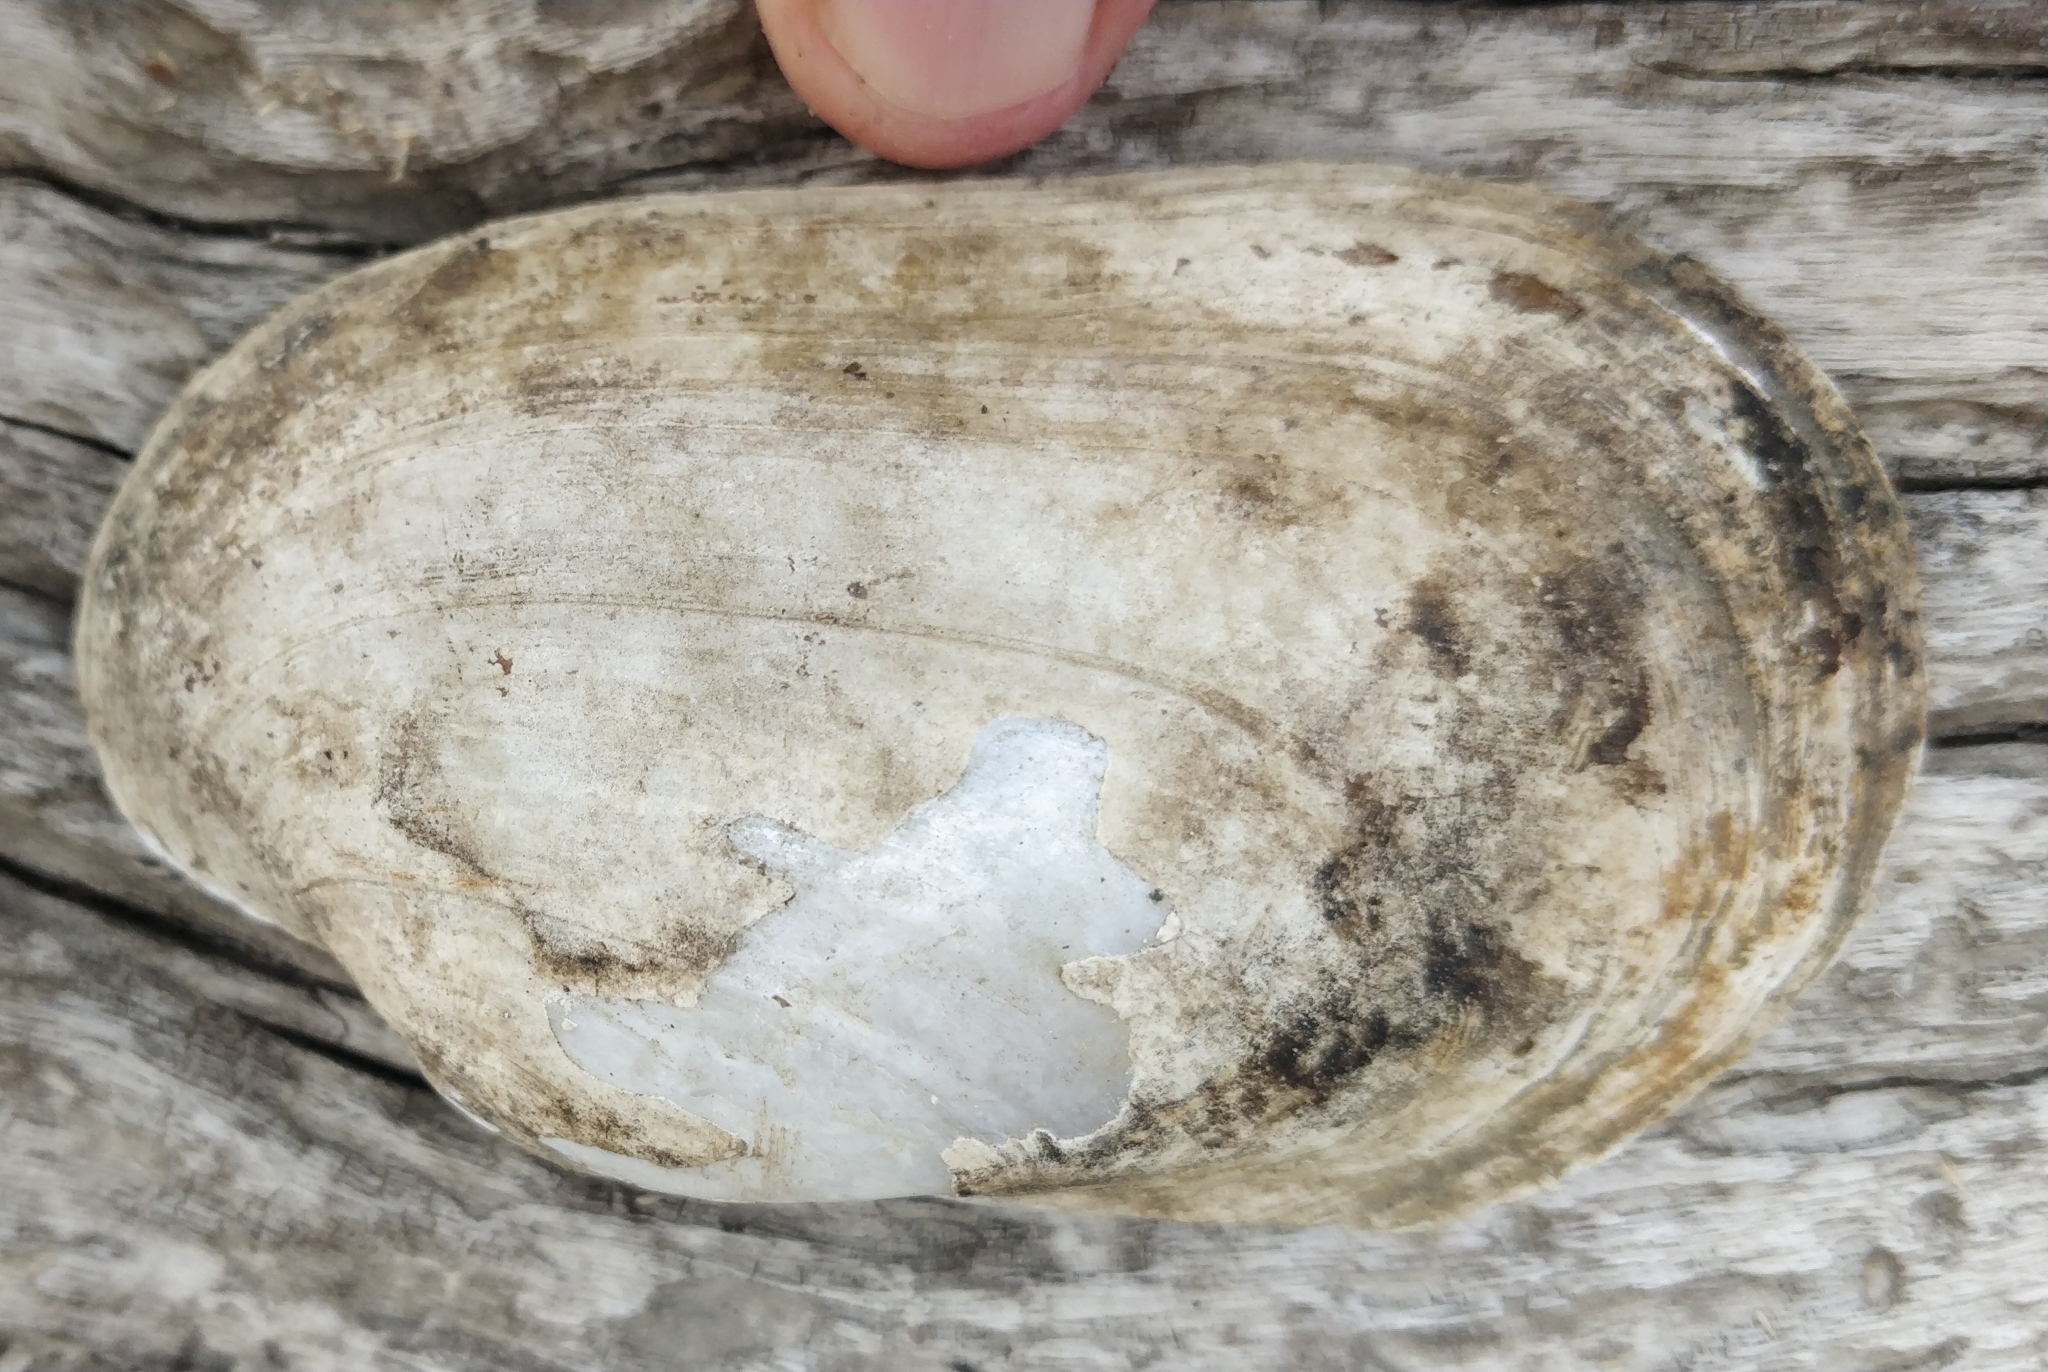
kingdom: Animalia
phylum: Mollusca
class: Bivalvia
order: Unionida
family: Unionidae
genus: Lampsilis
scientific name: Lampsilis siliquoidea
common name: Fatmucket
